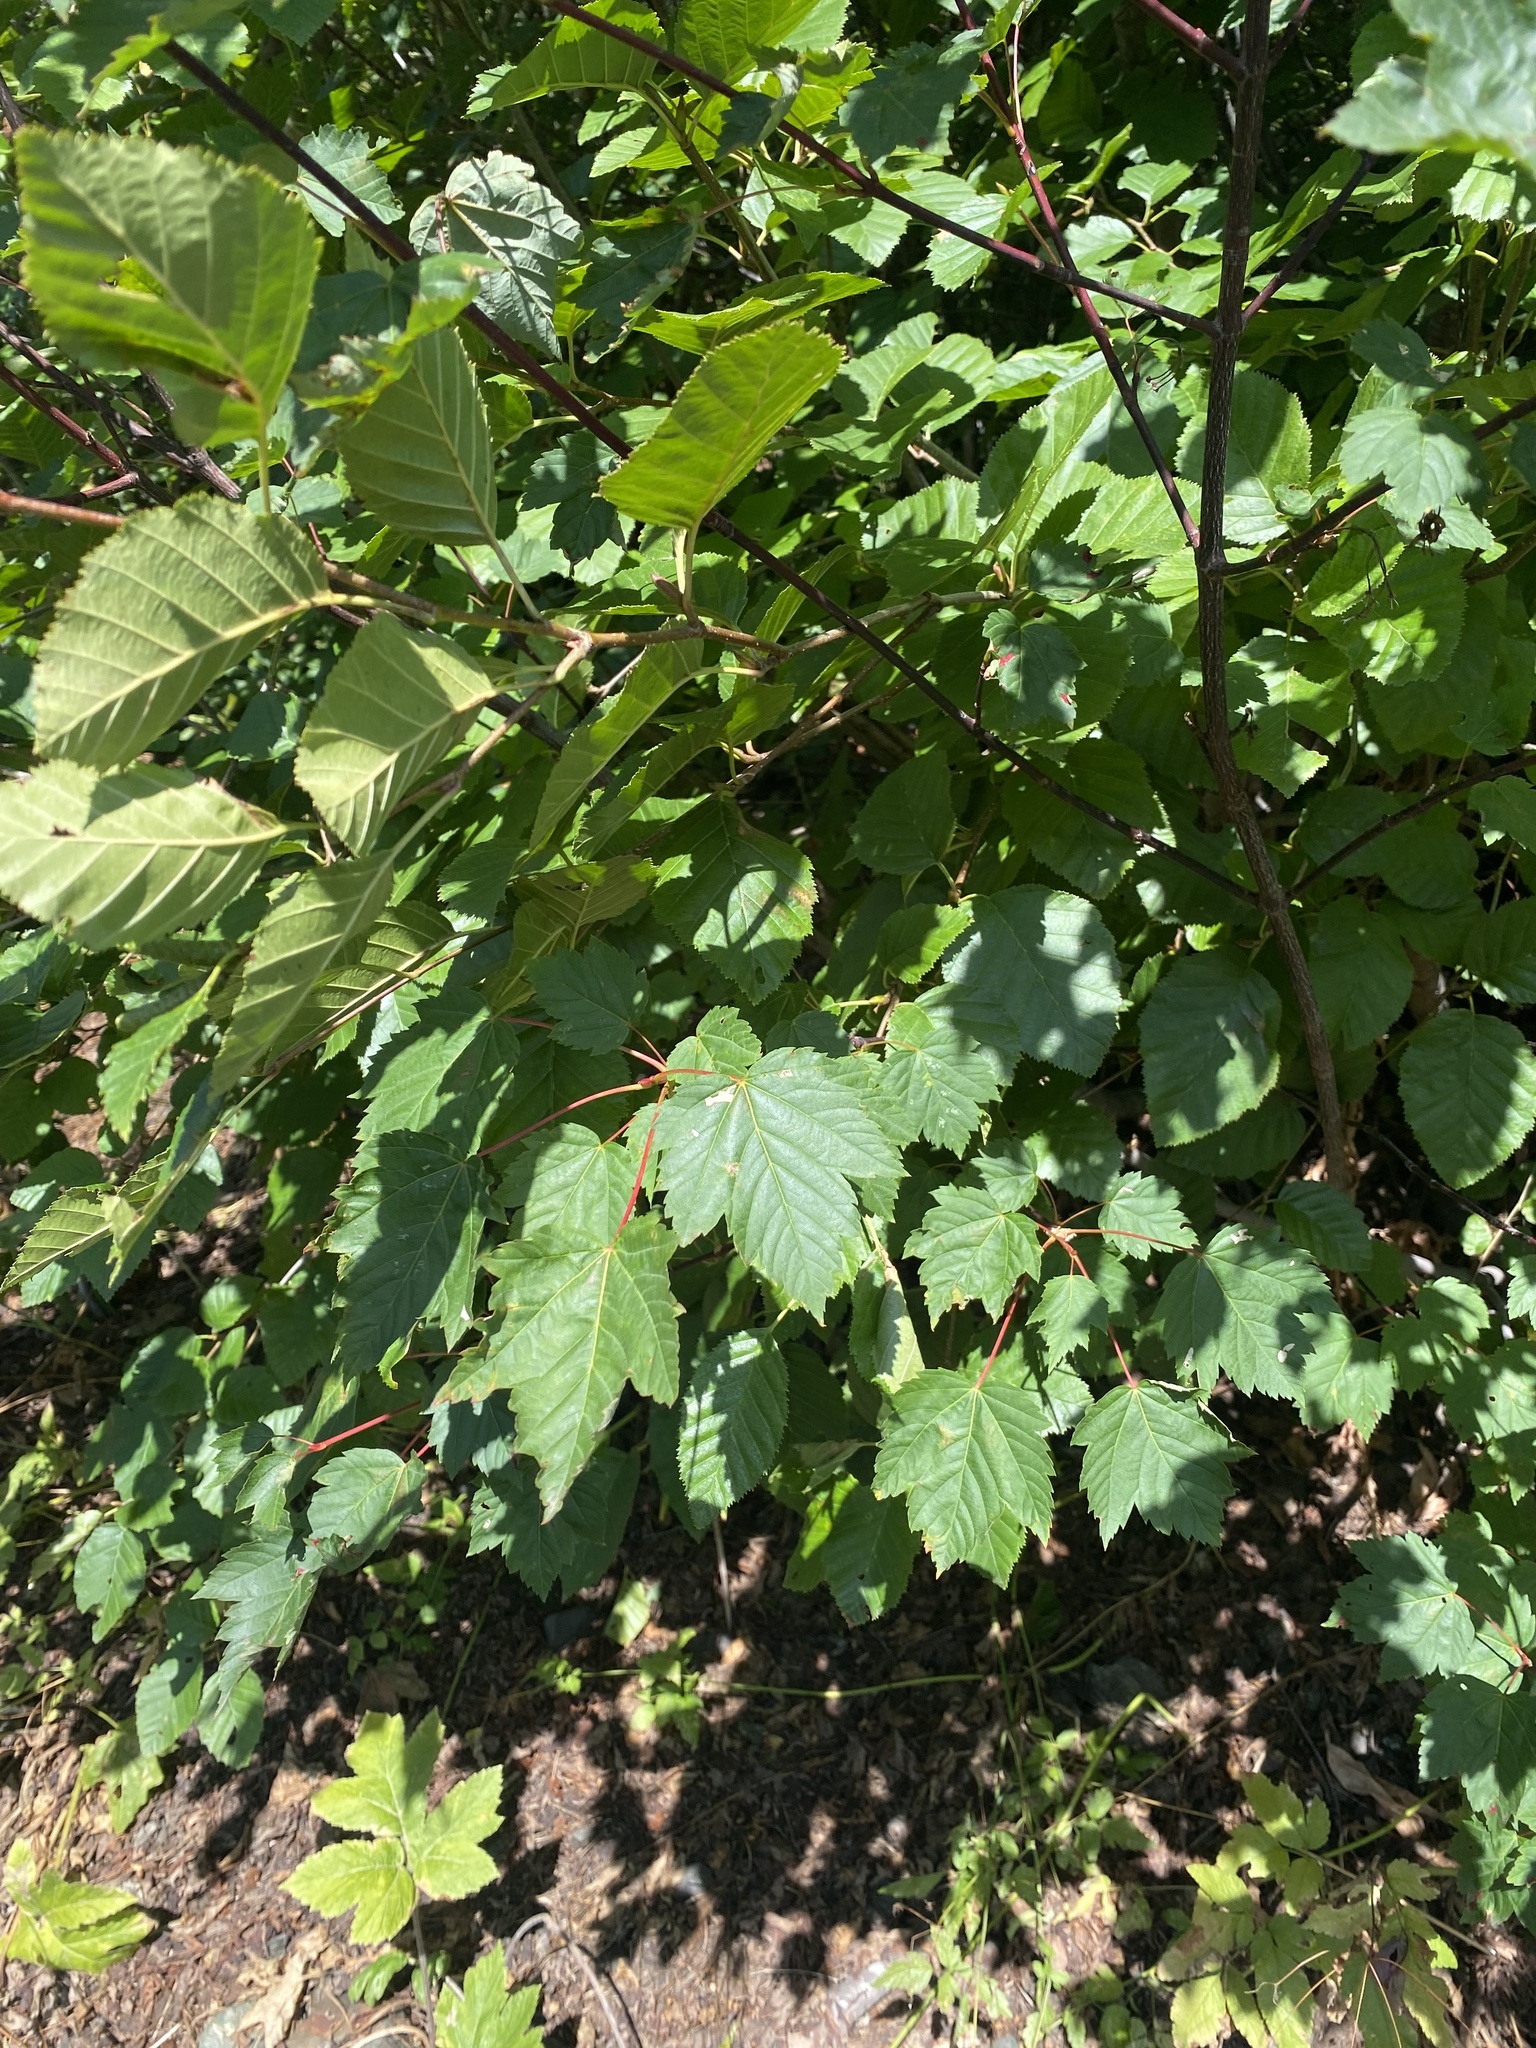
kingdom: Plantae
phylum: Tracheophyta
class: Magnoliopsida
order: Sapindales
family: Sapindaceae
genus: Acer
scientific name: Acer glabrum
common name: Rocky mountain maple
